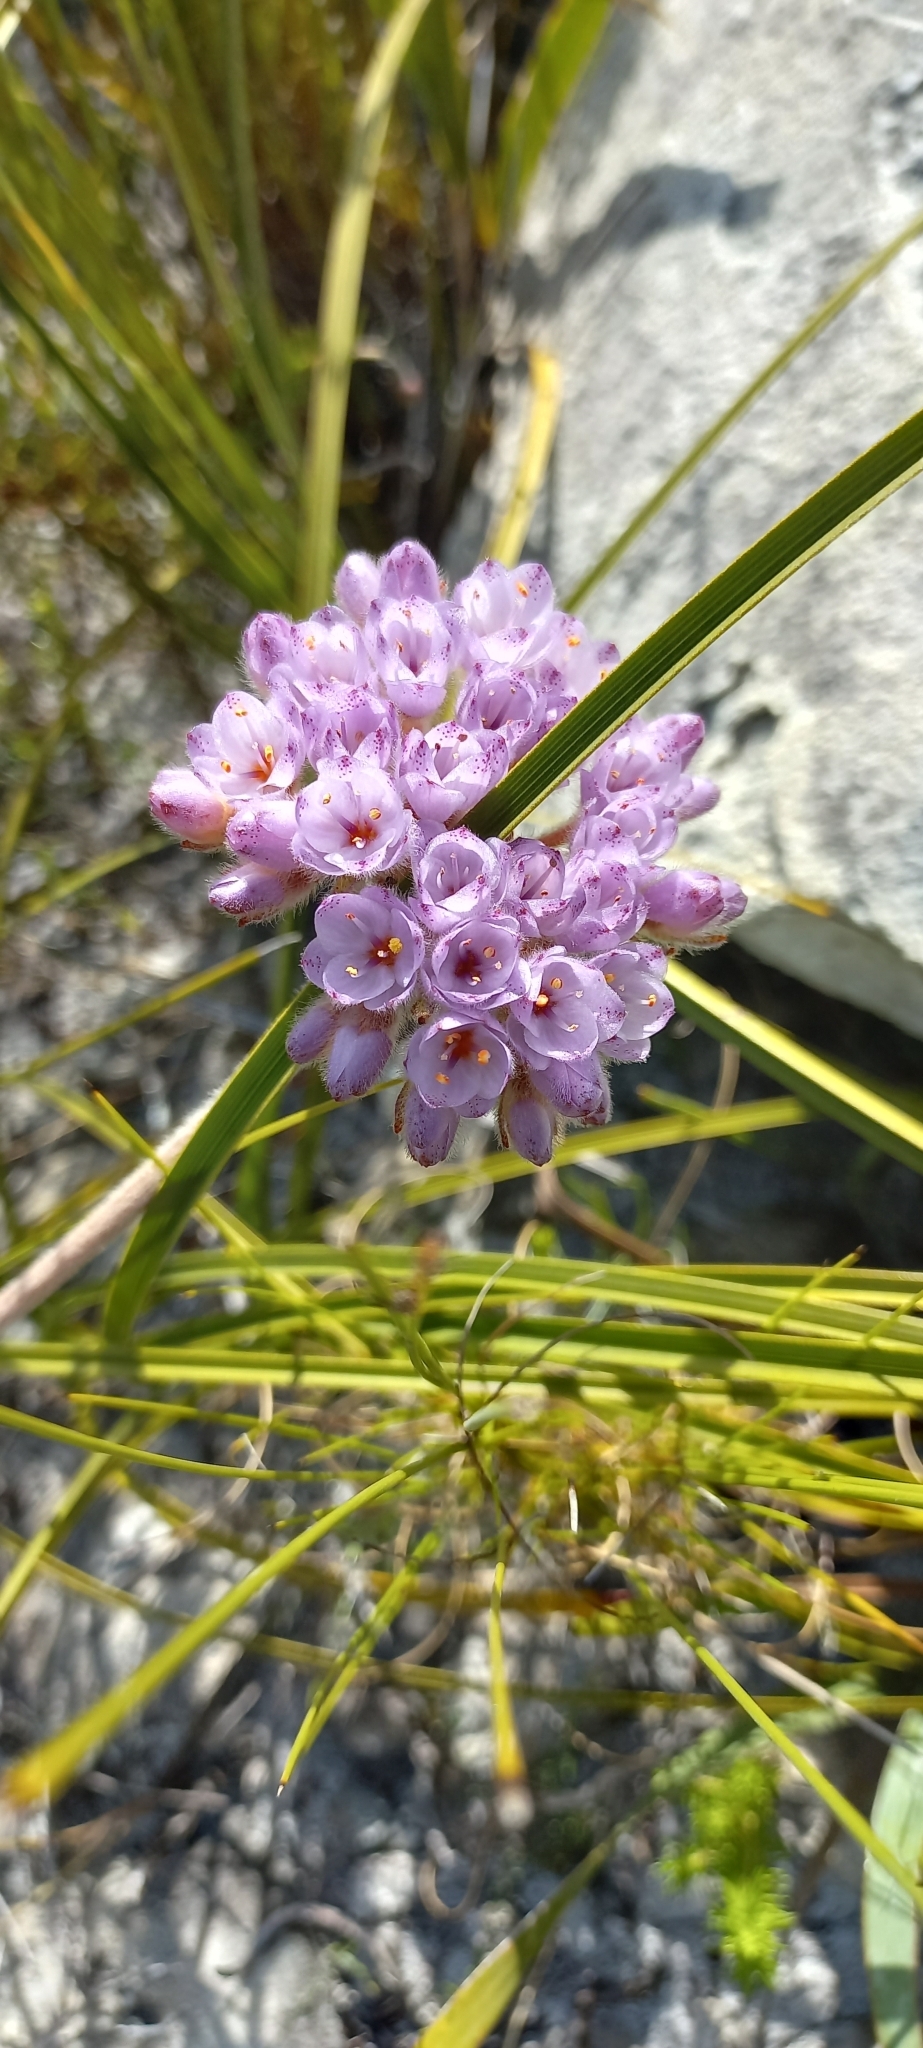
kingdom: Plantae
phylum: Tracheophyta
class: Liliopsida
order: Commelinales
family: Haemodoraceae
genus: Dilatris
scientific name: Dilatris pillansii
